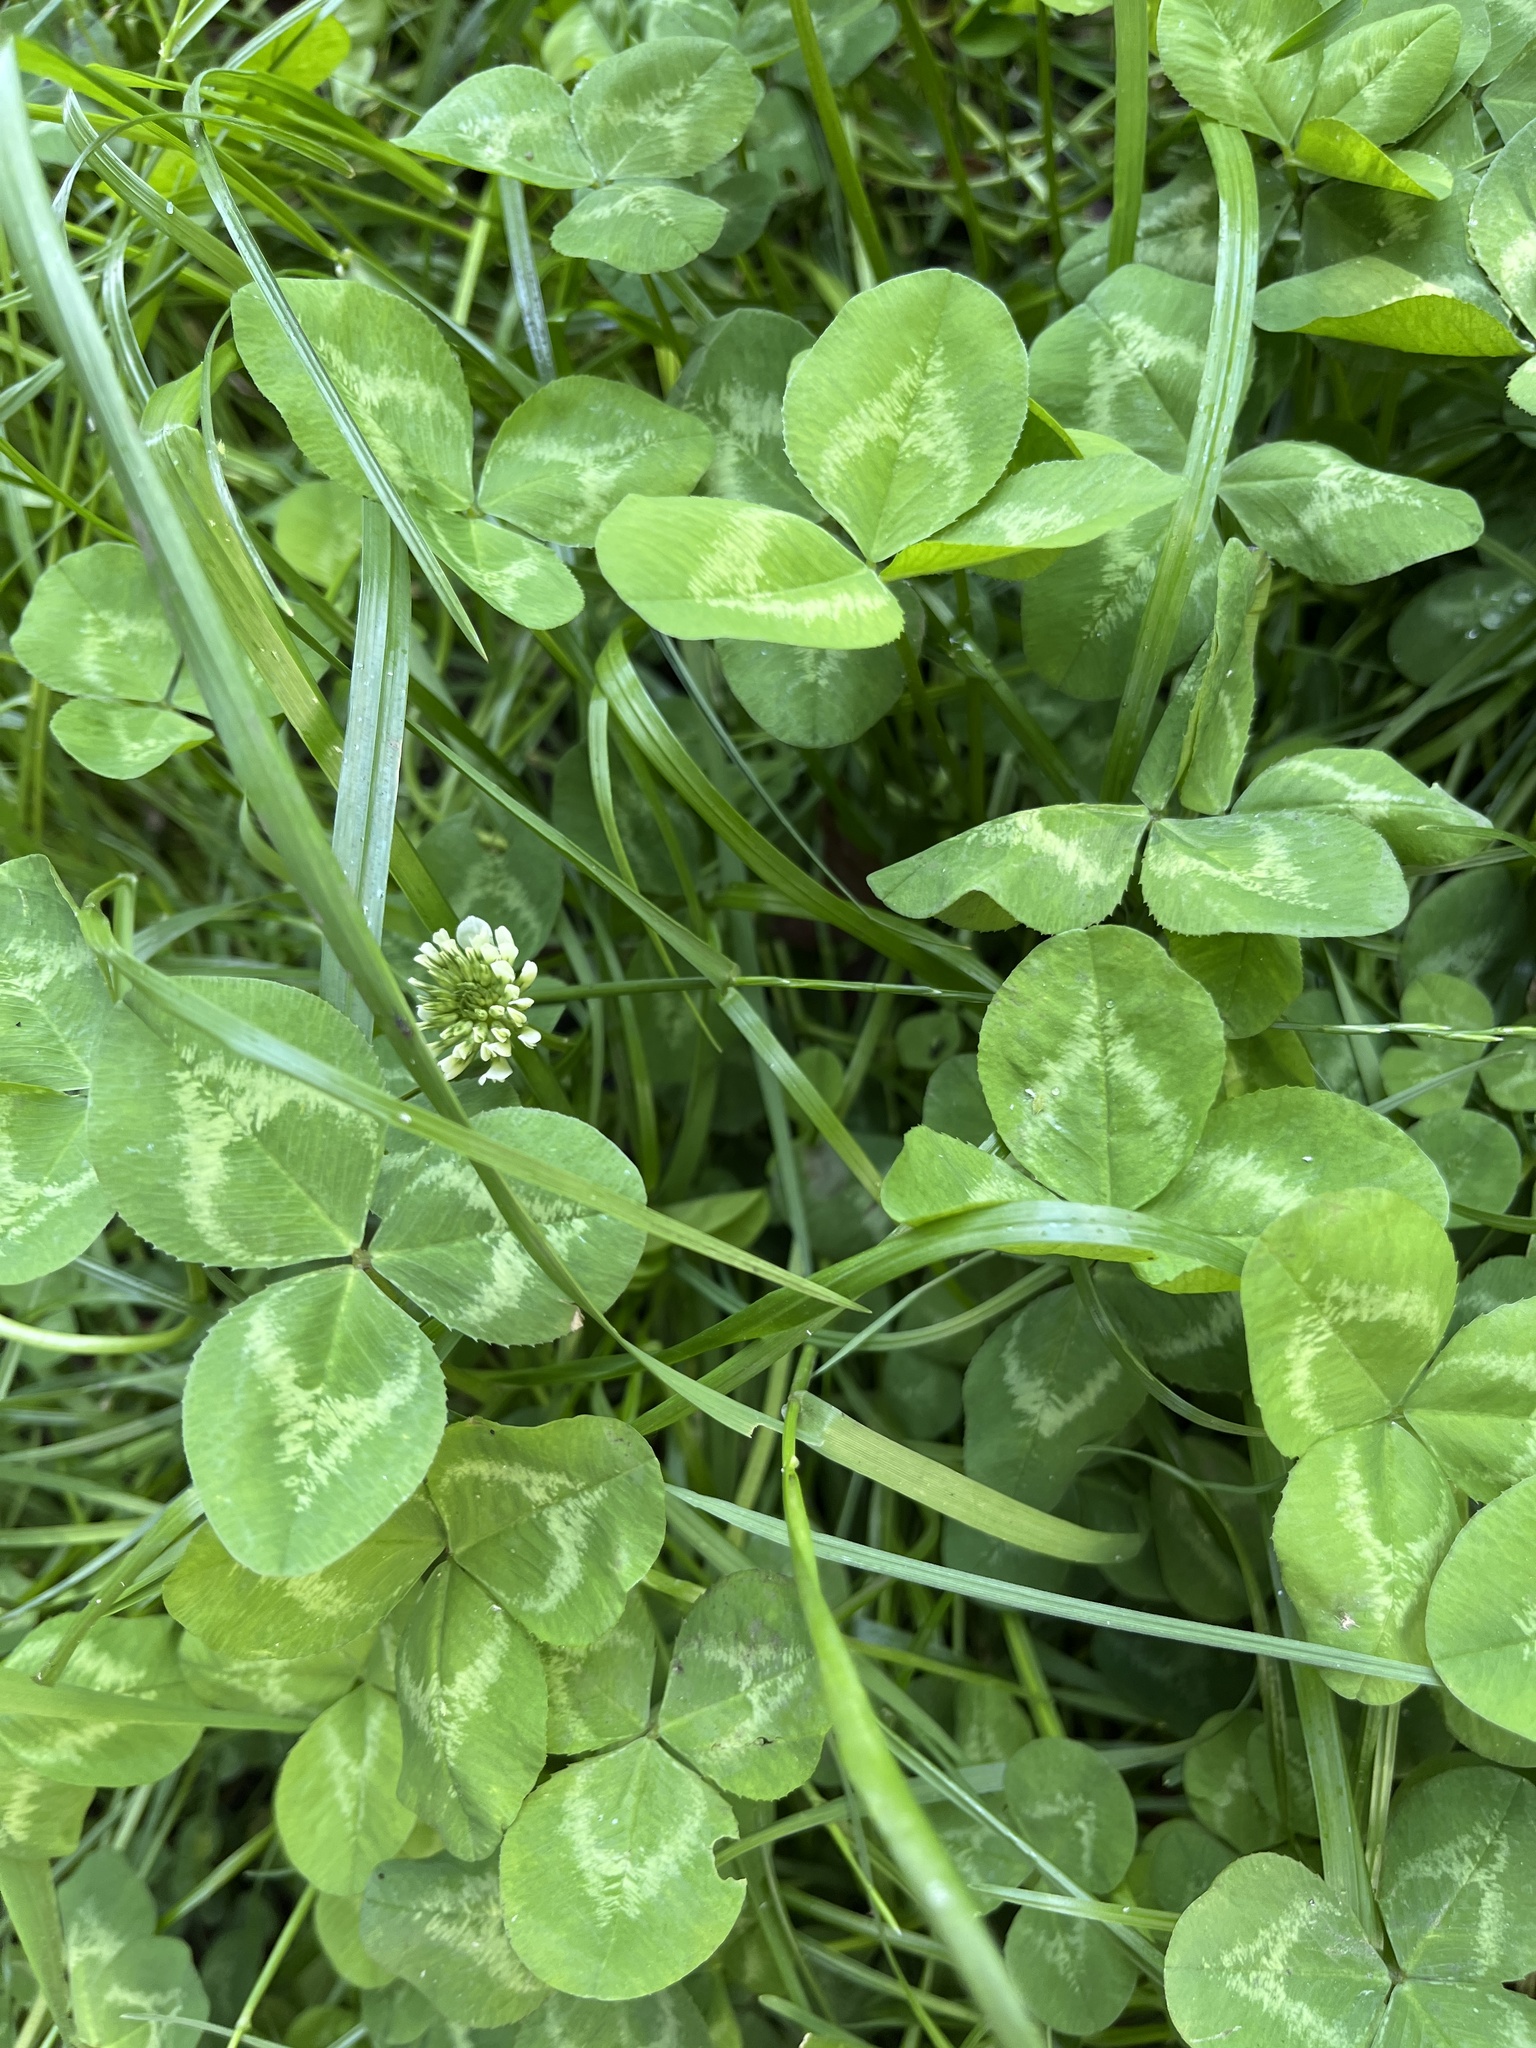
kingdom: Plantae
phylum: Tracheophyta
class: Magnoliopsida
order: Fabales
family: Fabaceae
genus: Trifolium
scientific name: Trifolium repens
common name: White clover
